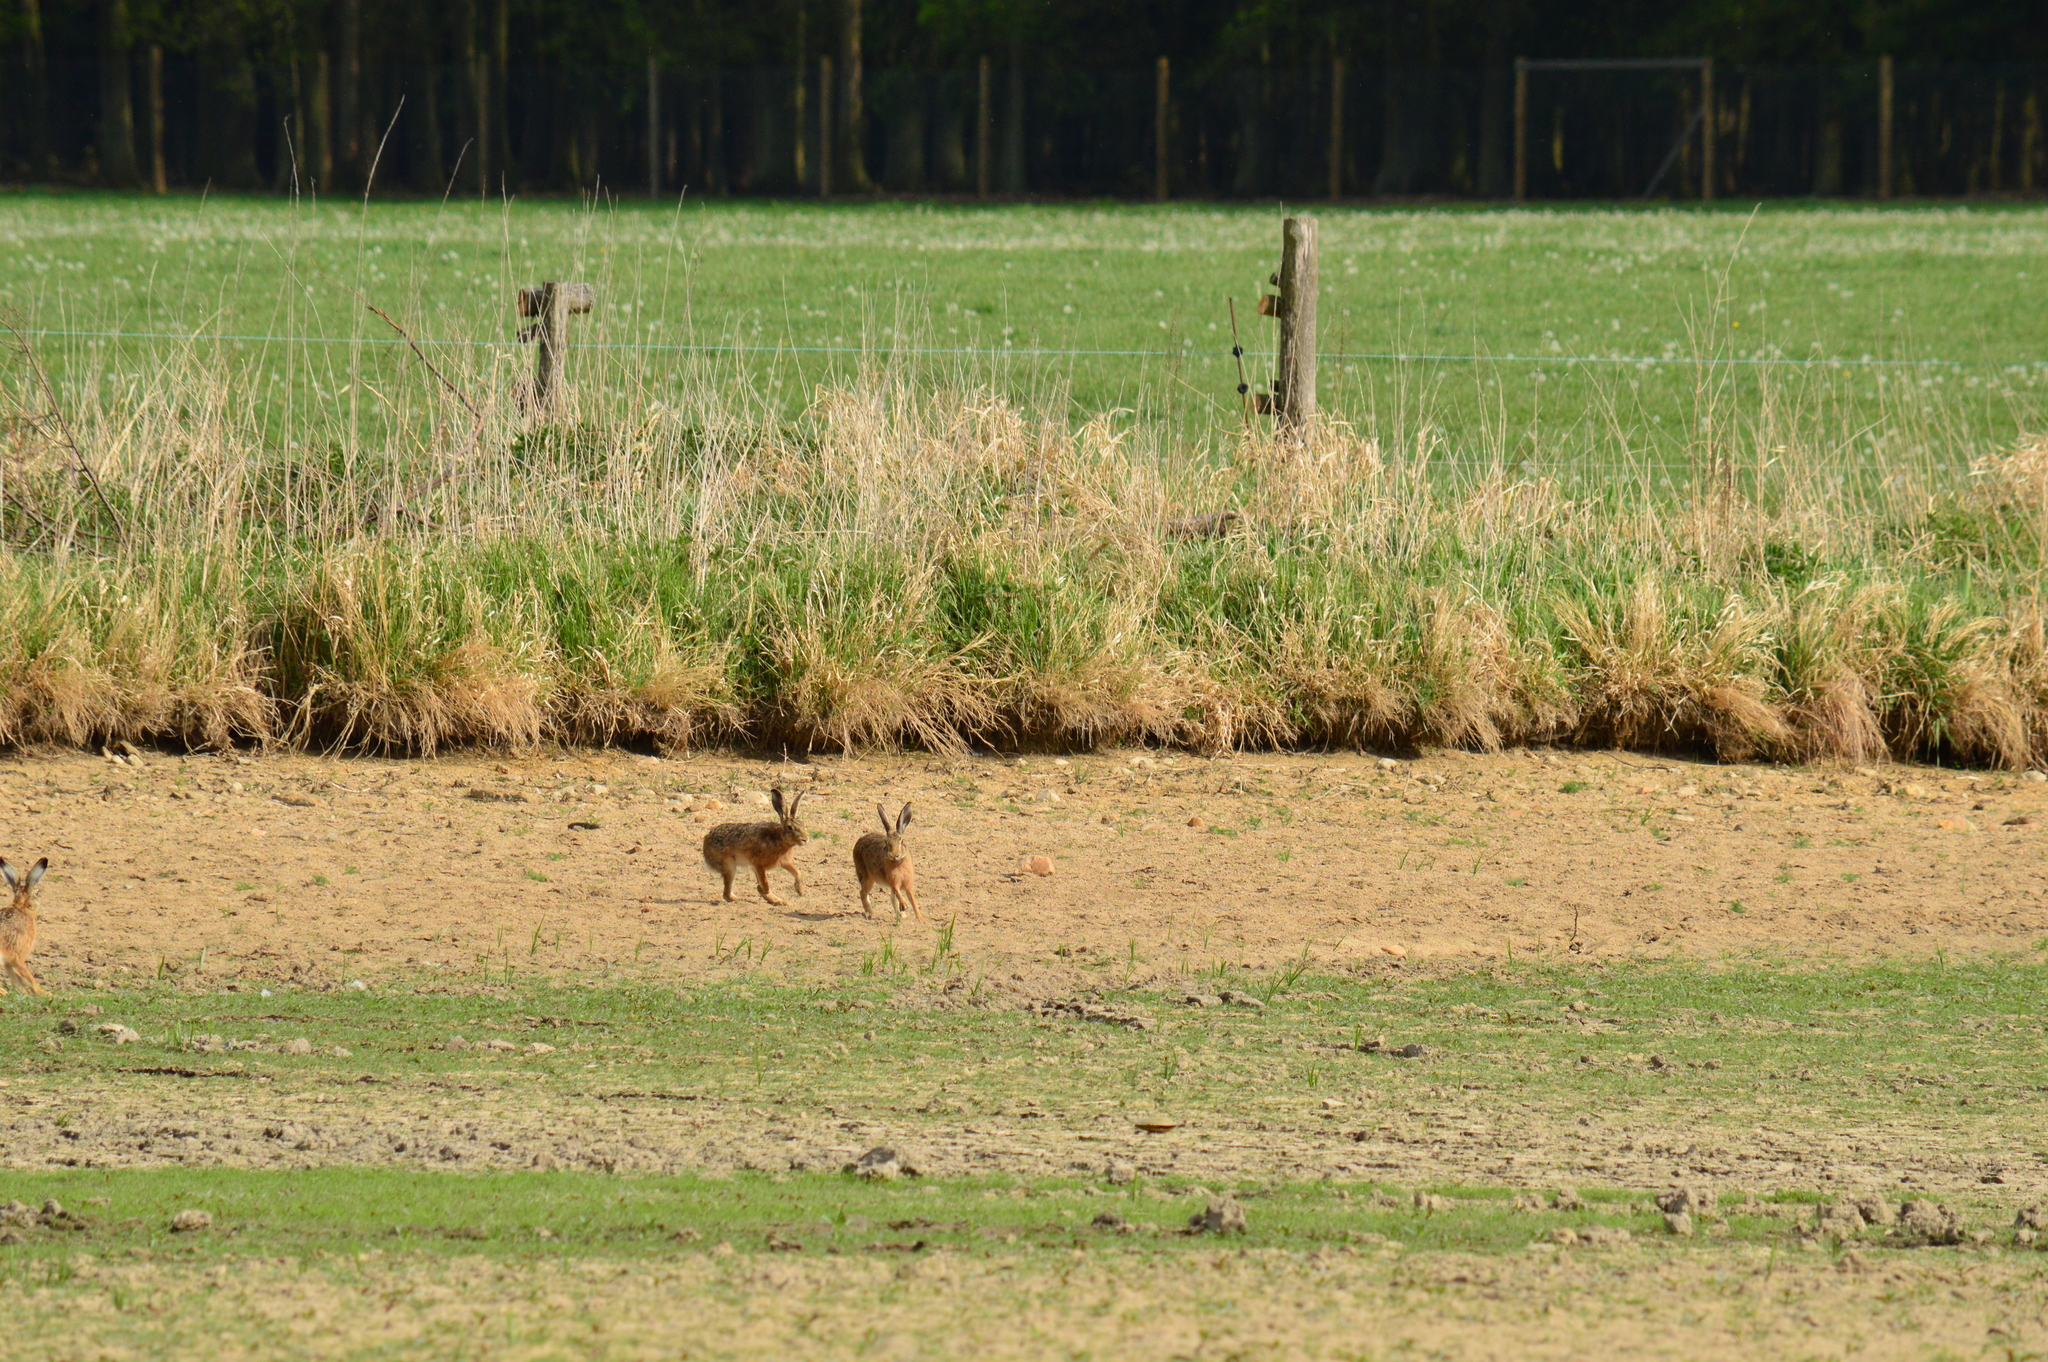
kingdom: Animalia
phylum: Chordata
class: Mammalia
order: Lagomorpha
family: Leporidae
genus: Lepus
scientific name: Lepus europaeus
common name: European hare
